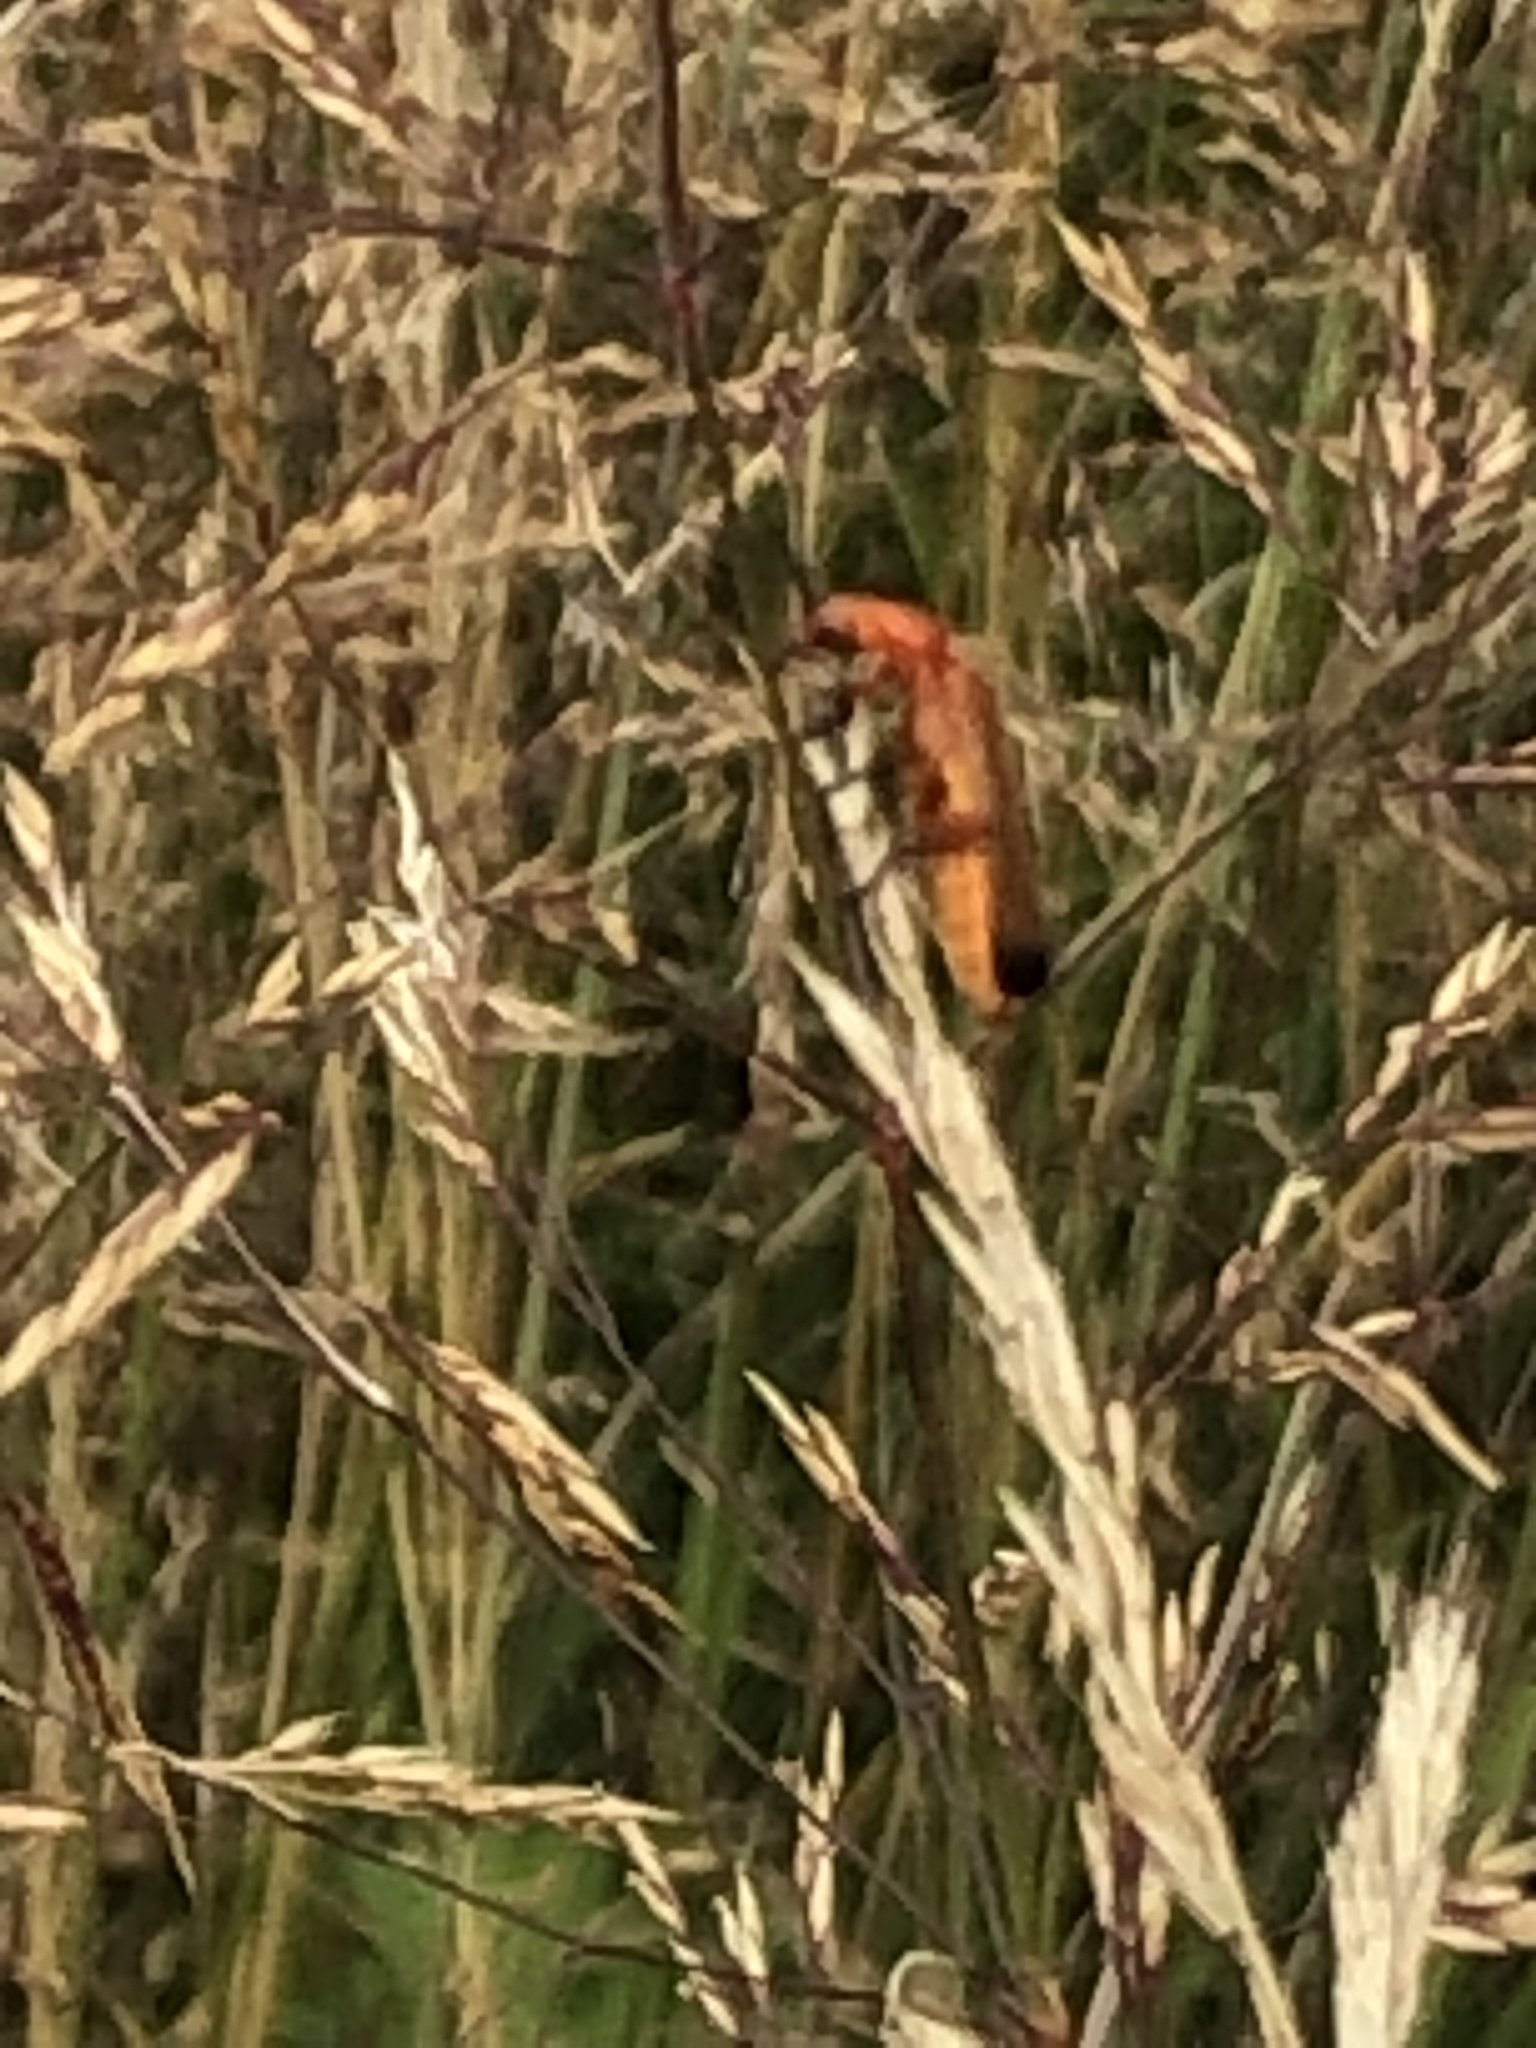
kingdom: Animalia
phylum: Arthropoda
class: Insecta
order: Coleoptera
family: Cantharidae
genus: Rhagonycha
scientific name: Rhagonycha fulva
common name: Common red soldier beetle
